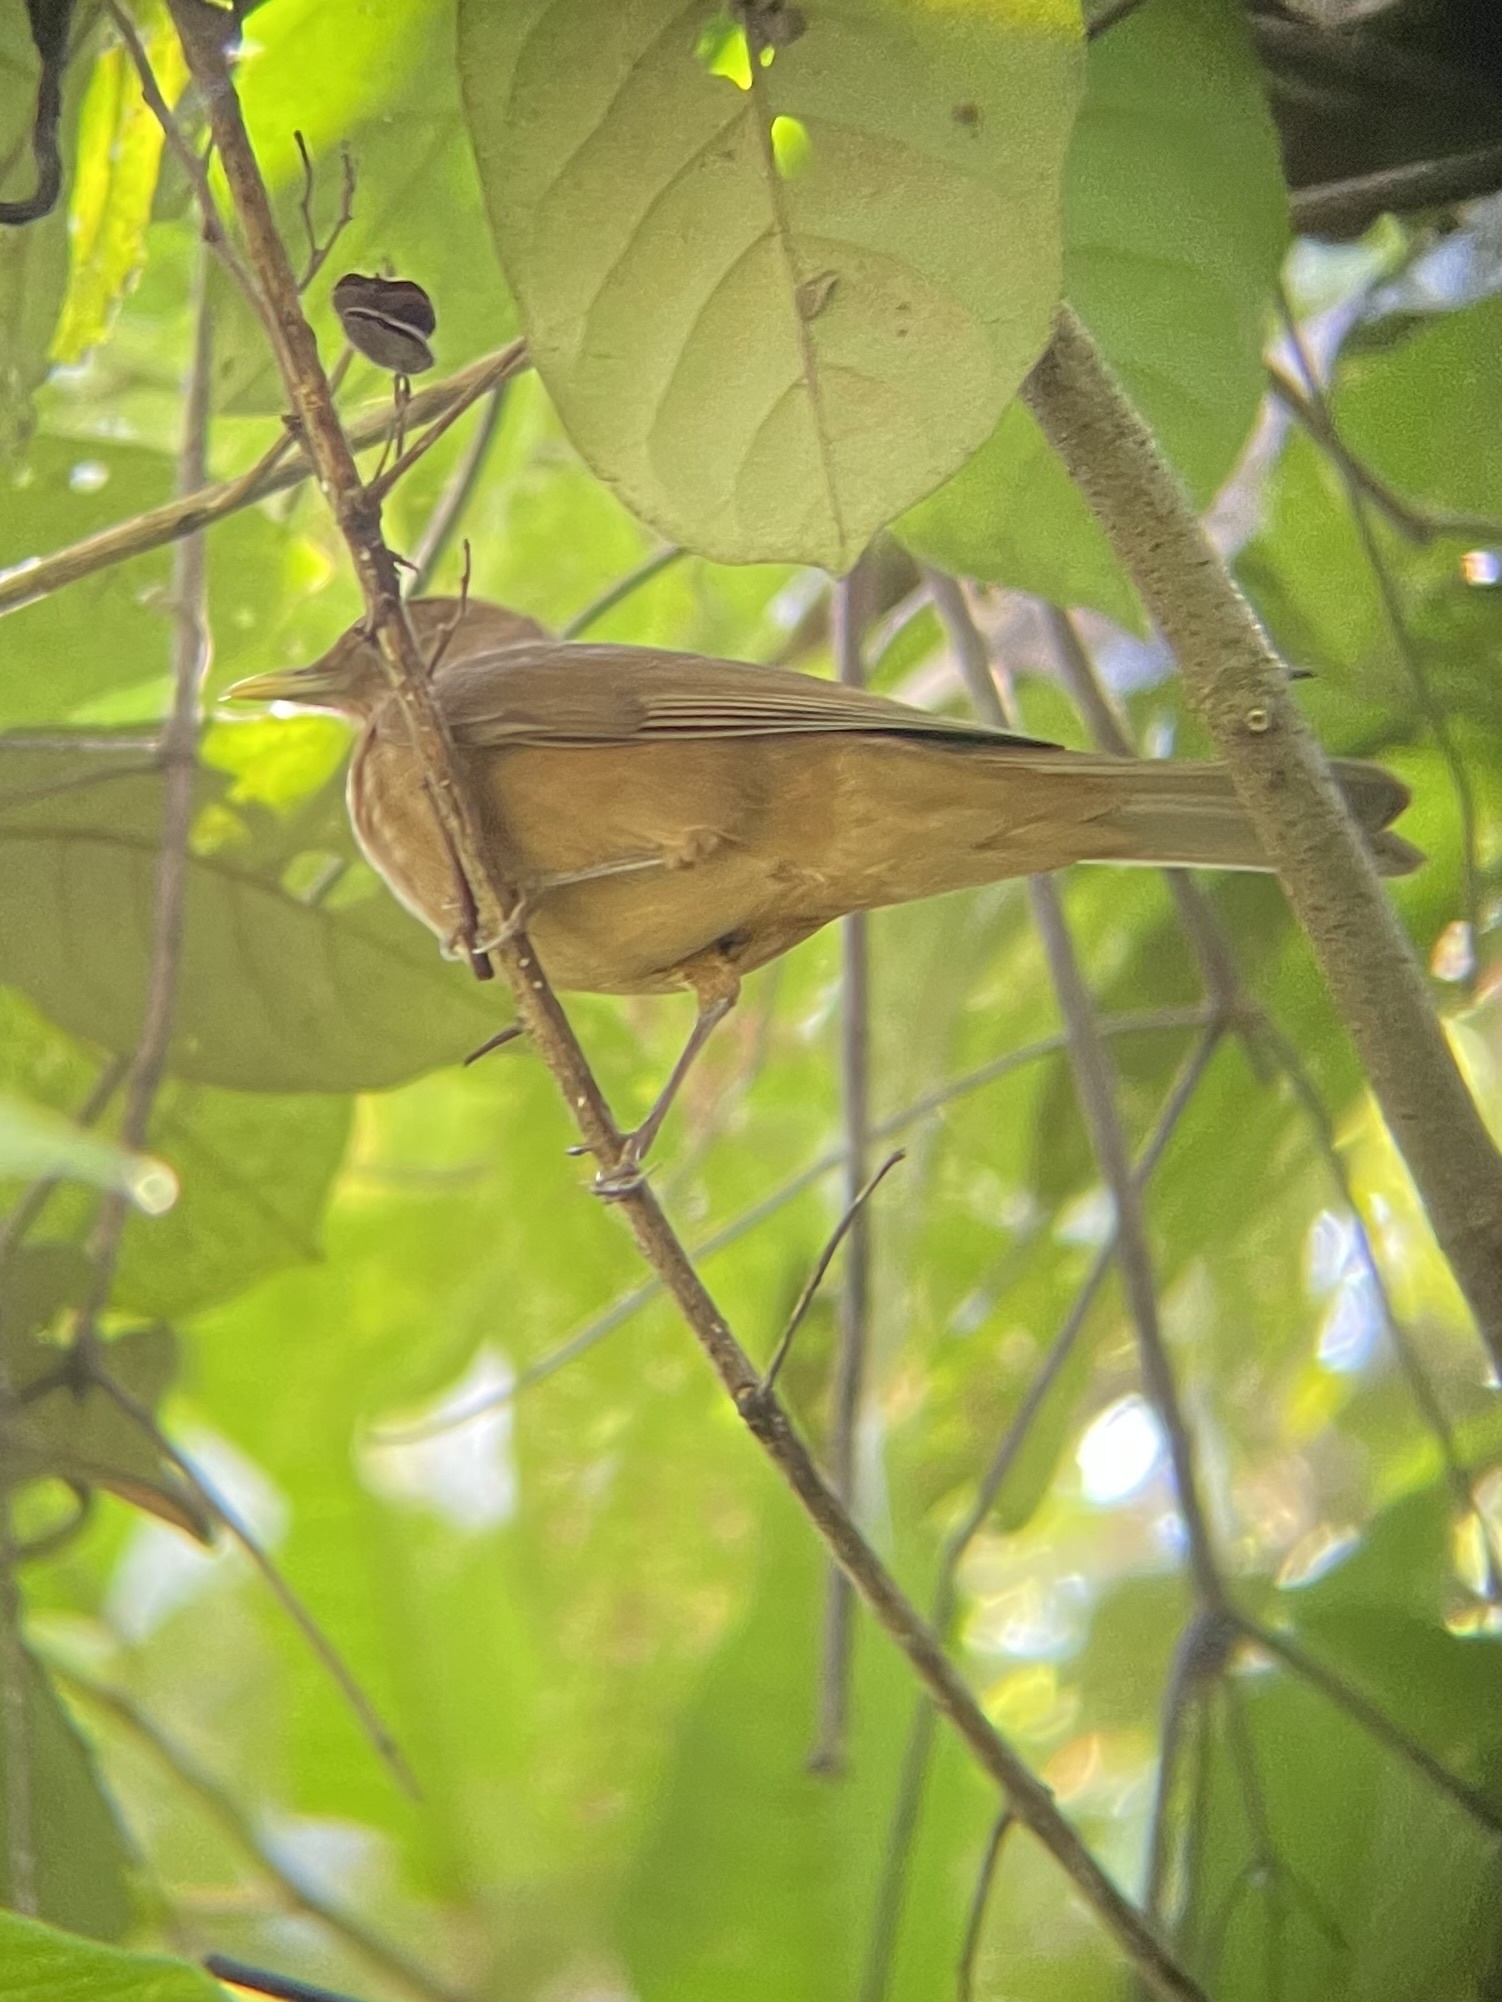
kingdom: Animalia
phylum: Chordata
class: Aves
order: Passeriformes
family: Turdidae
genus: Turdus
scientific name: Turdus grayi
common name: Clay-colored thrush
